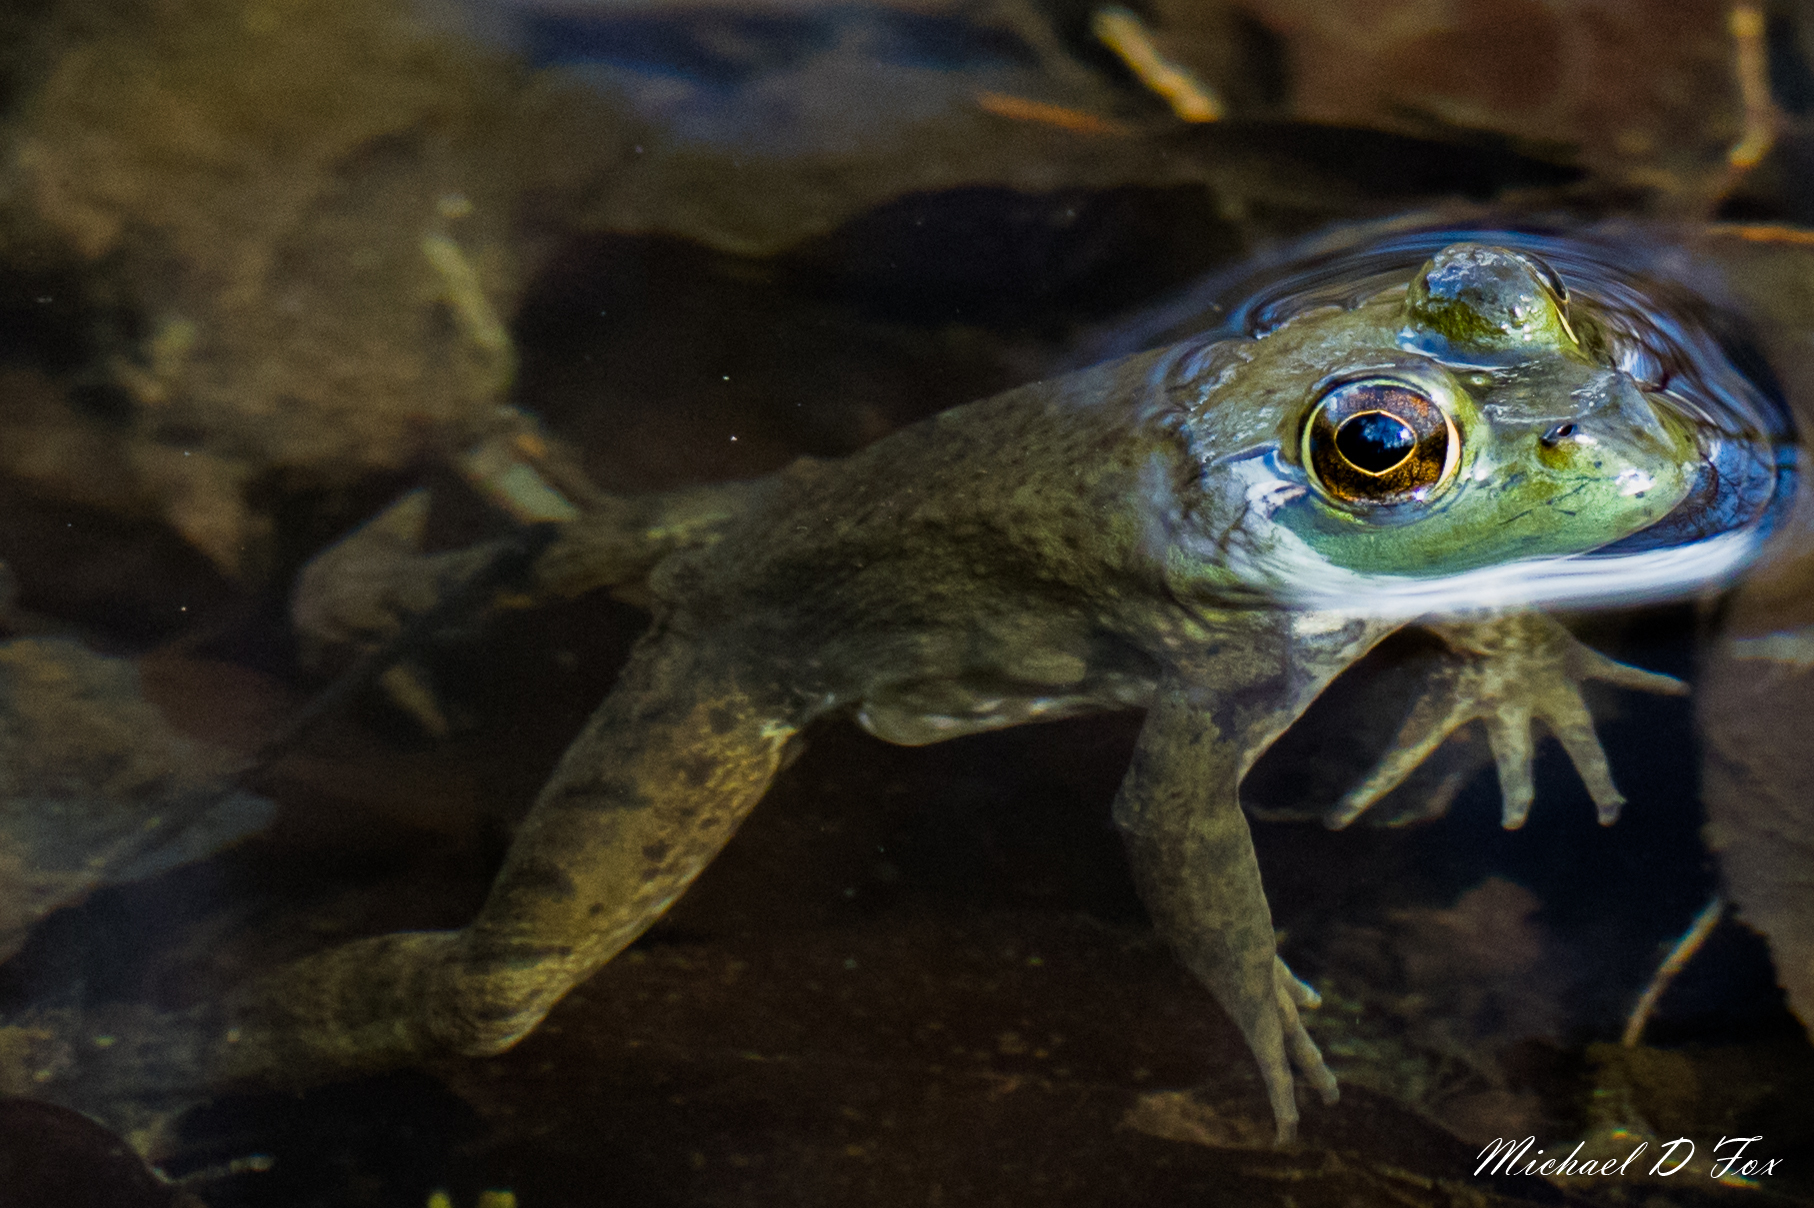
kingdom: Animalia
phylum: Chordata
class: Amphibia
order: Anura
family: Ranidae
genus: Lithobates
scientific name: Lithobates catesbeianus
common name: American bullfrog
